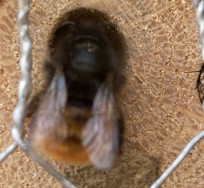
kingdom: Animalia
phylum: Arthropoda
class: Insecta
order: Hymenoptera
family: Megachilidae
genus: Osmia
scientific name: Osmia cornuta
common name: Mason bee
